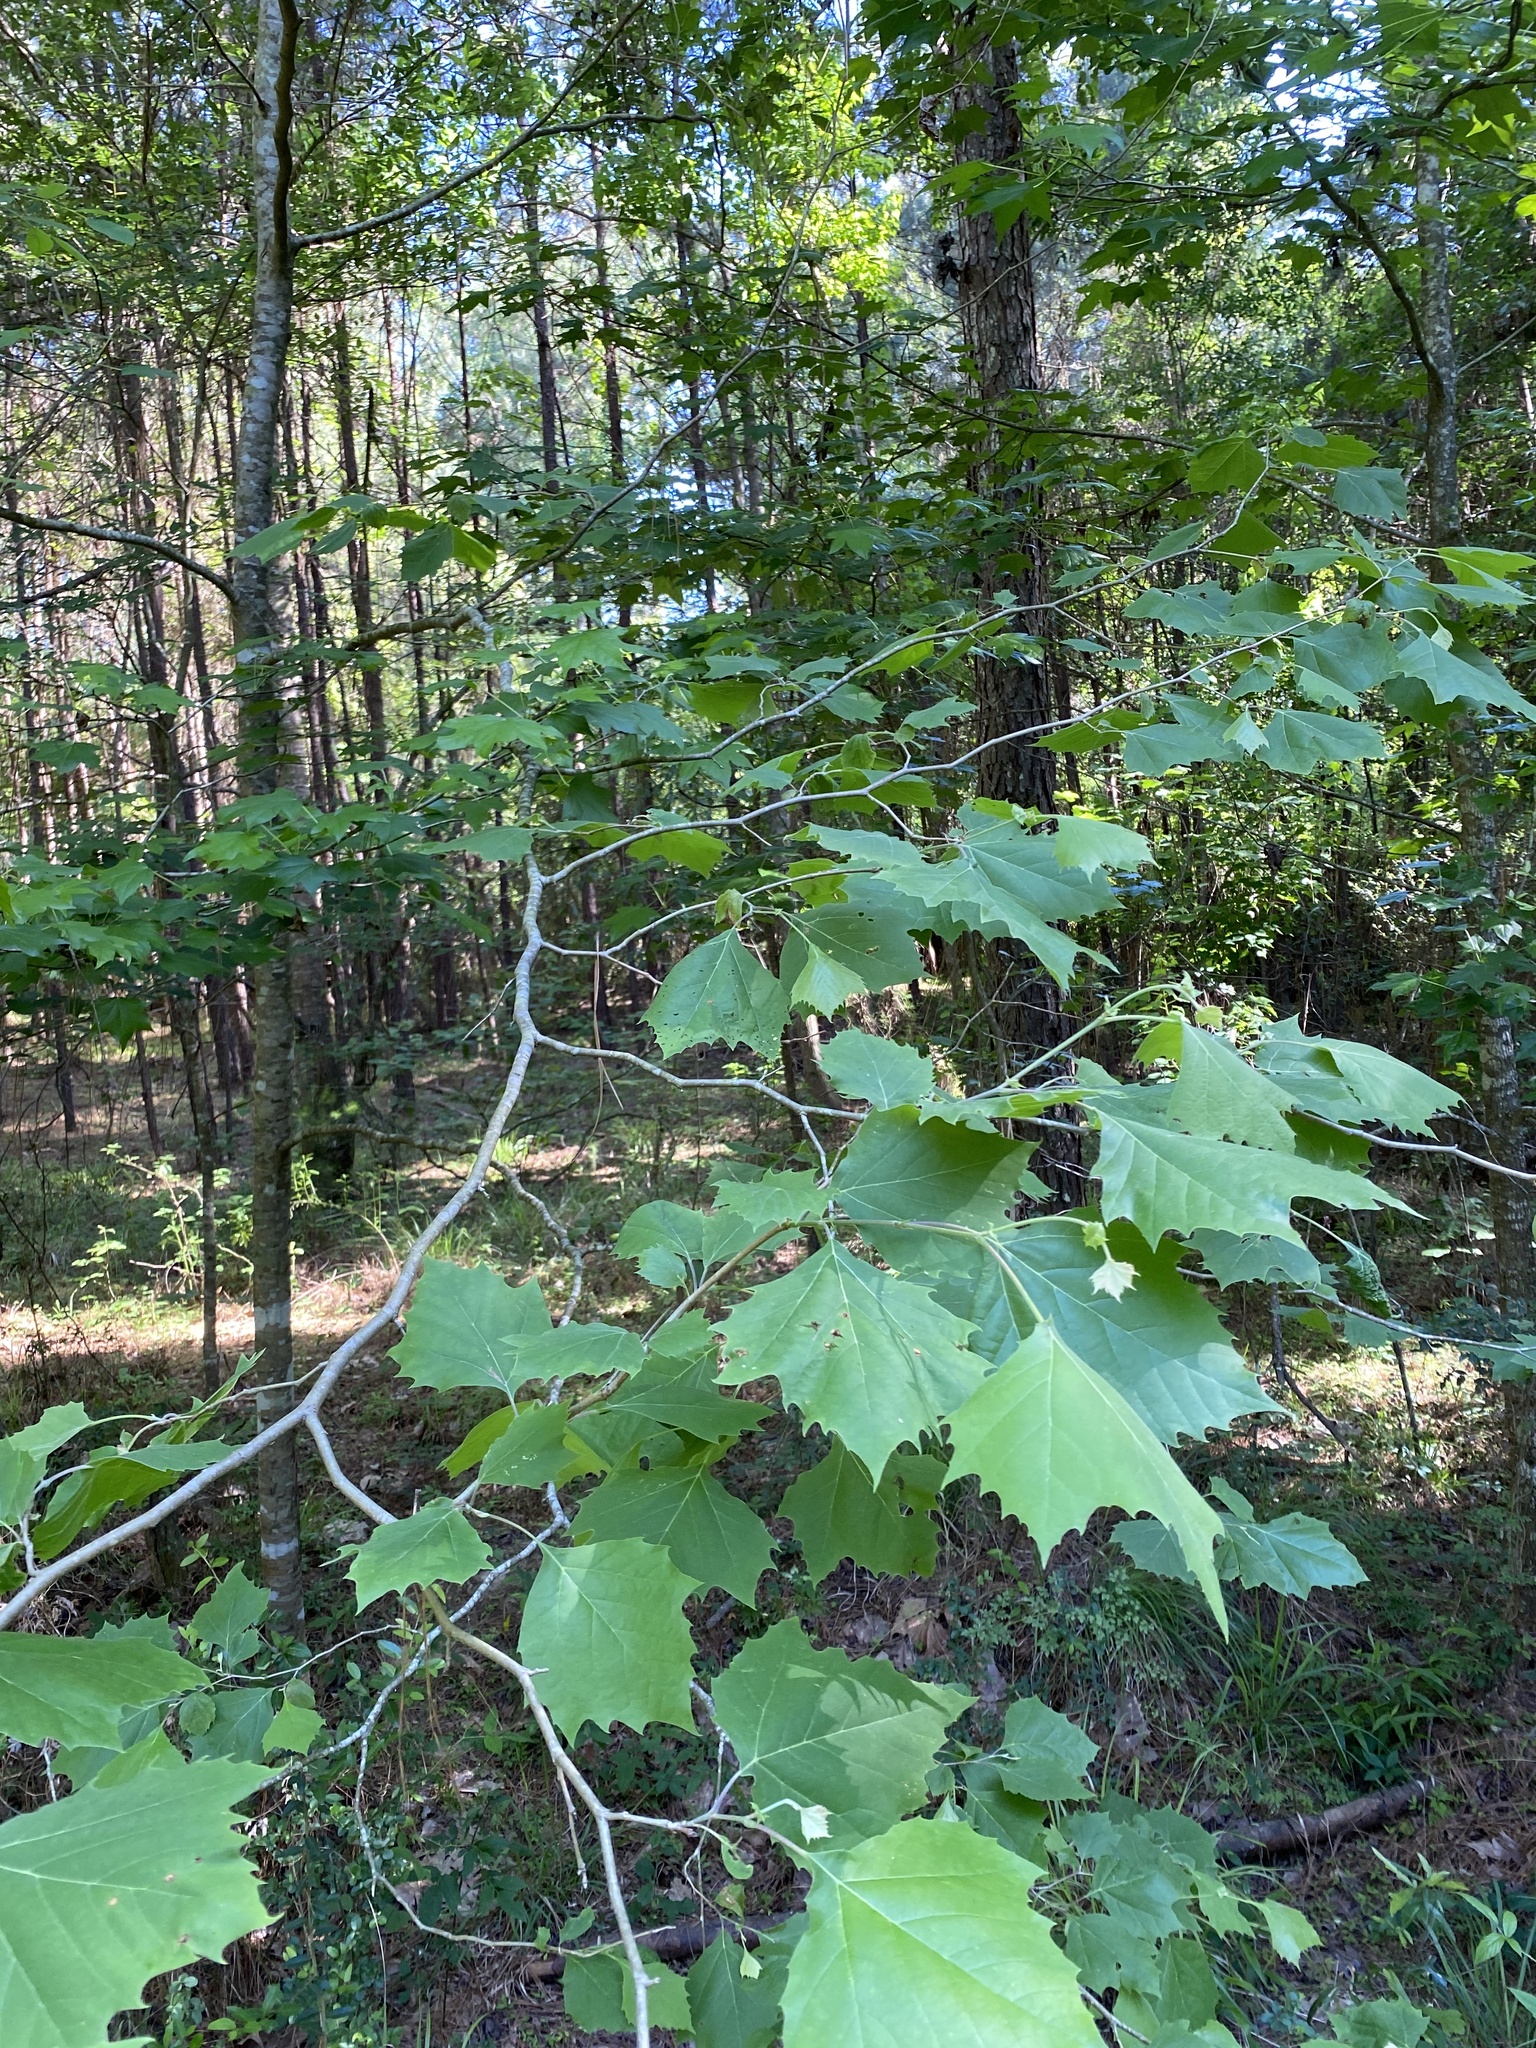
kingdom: Plantae
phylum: Tracheophyta
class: Magnoliopsida
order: Proteales
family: Platanaceae
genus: Platanus
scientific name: Platanus occidentalis
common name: American sycamore
